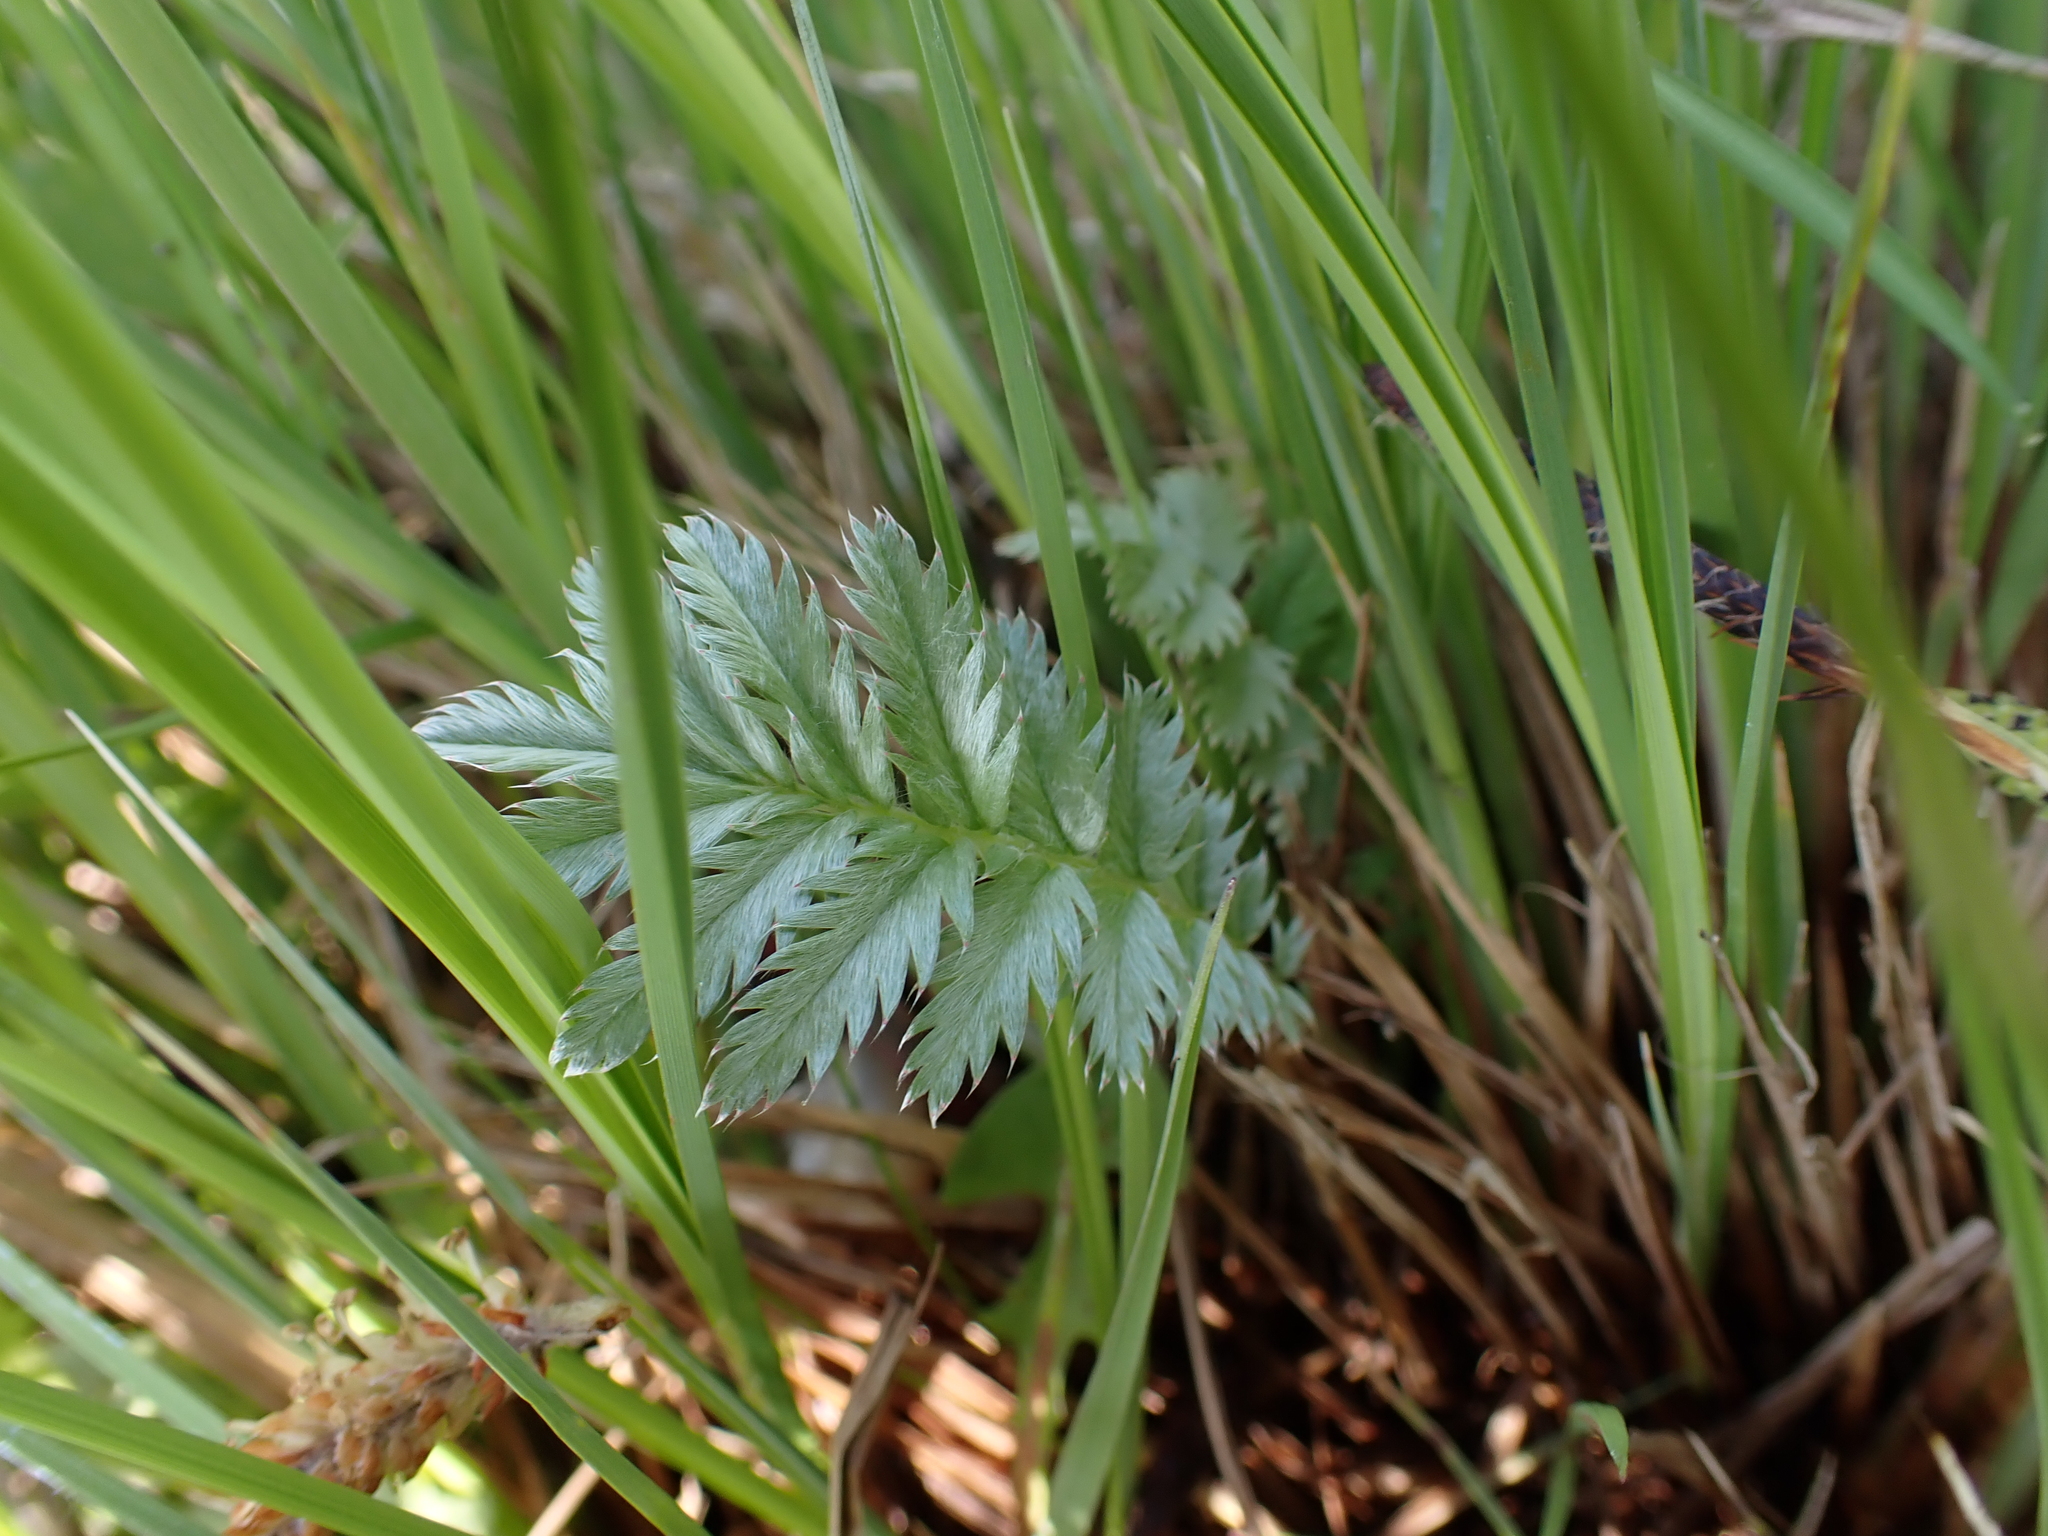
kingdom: Plantae
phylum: Tracheophyta
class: Magnoliopsida
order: Rosales
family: Rosaceae
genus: Argentina
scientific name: Argentina anserina
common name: Common silverweed
